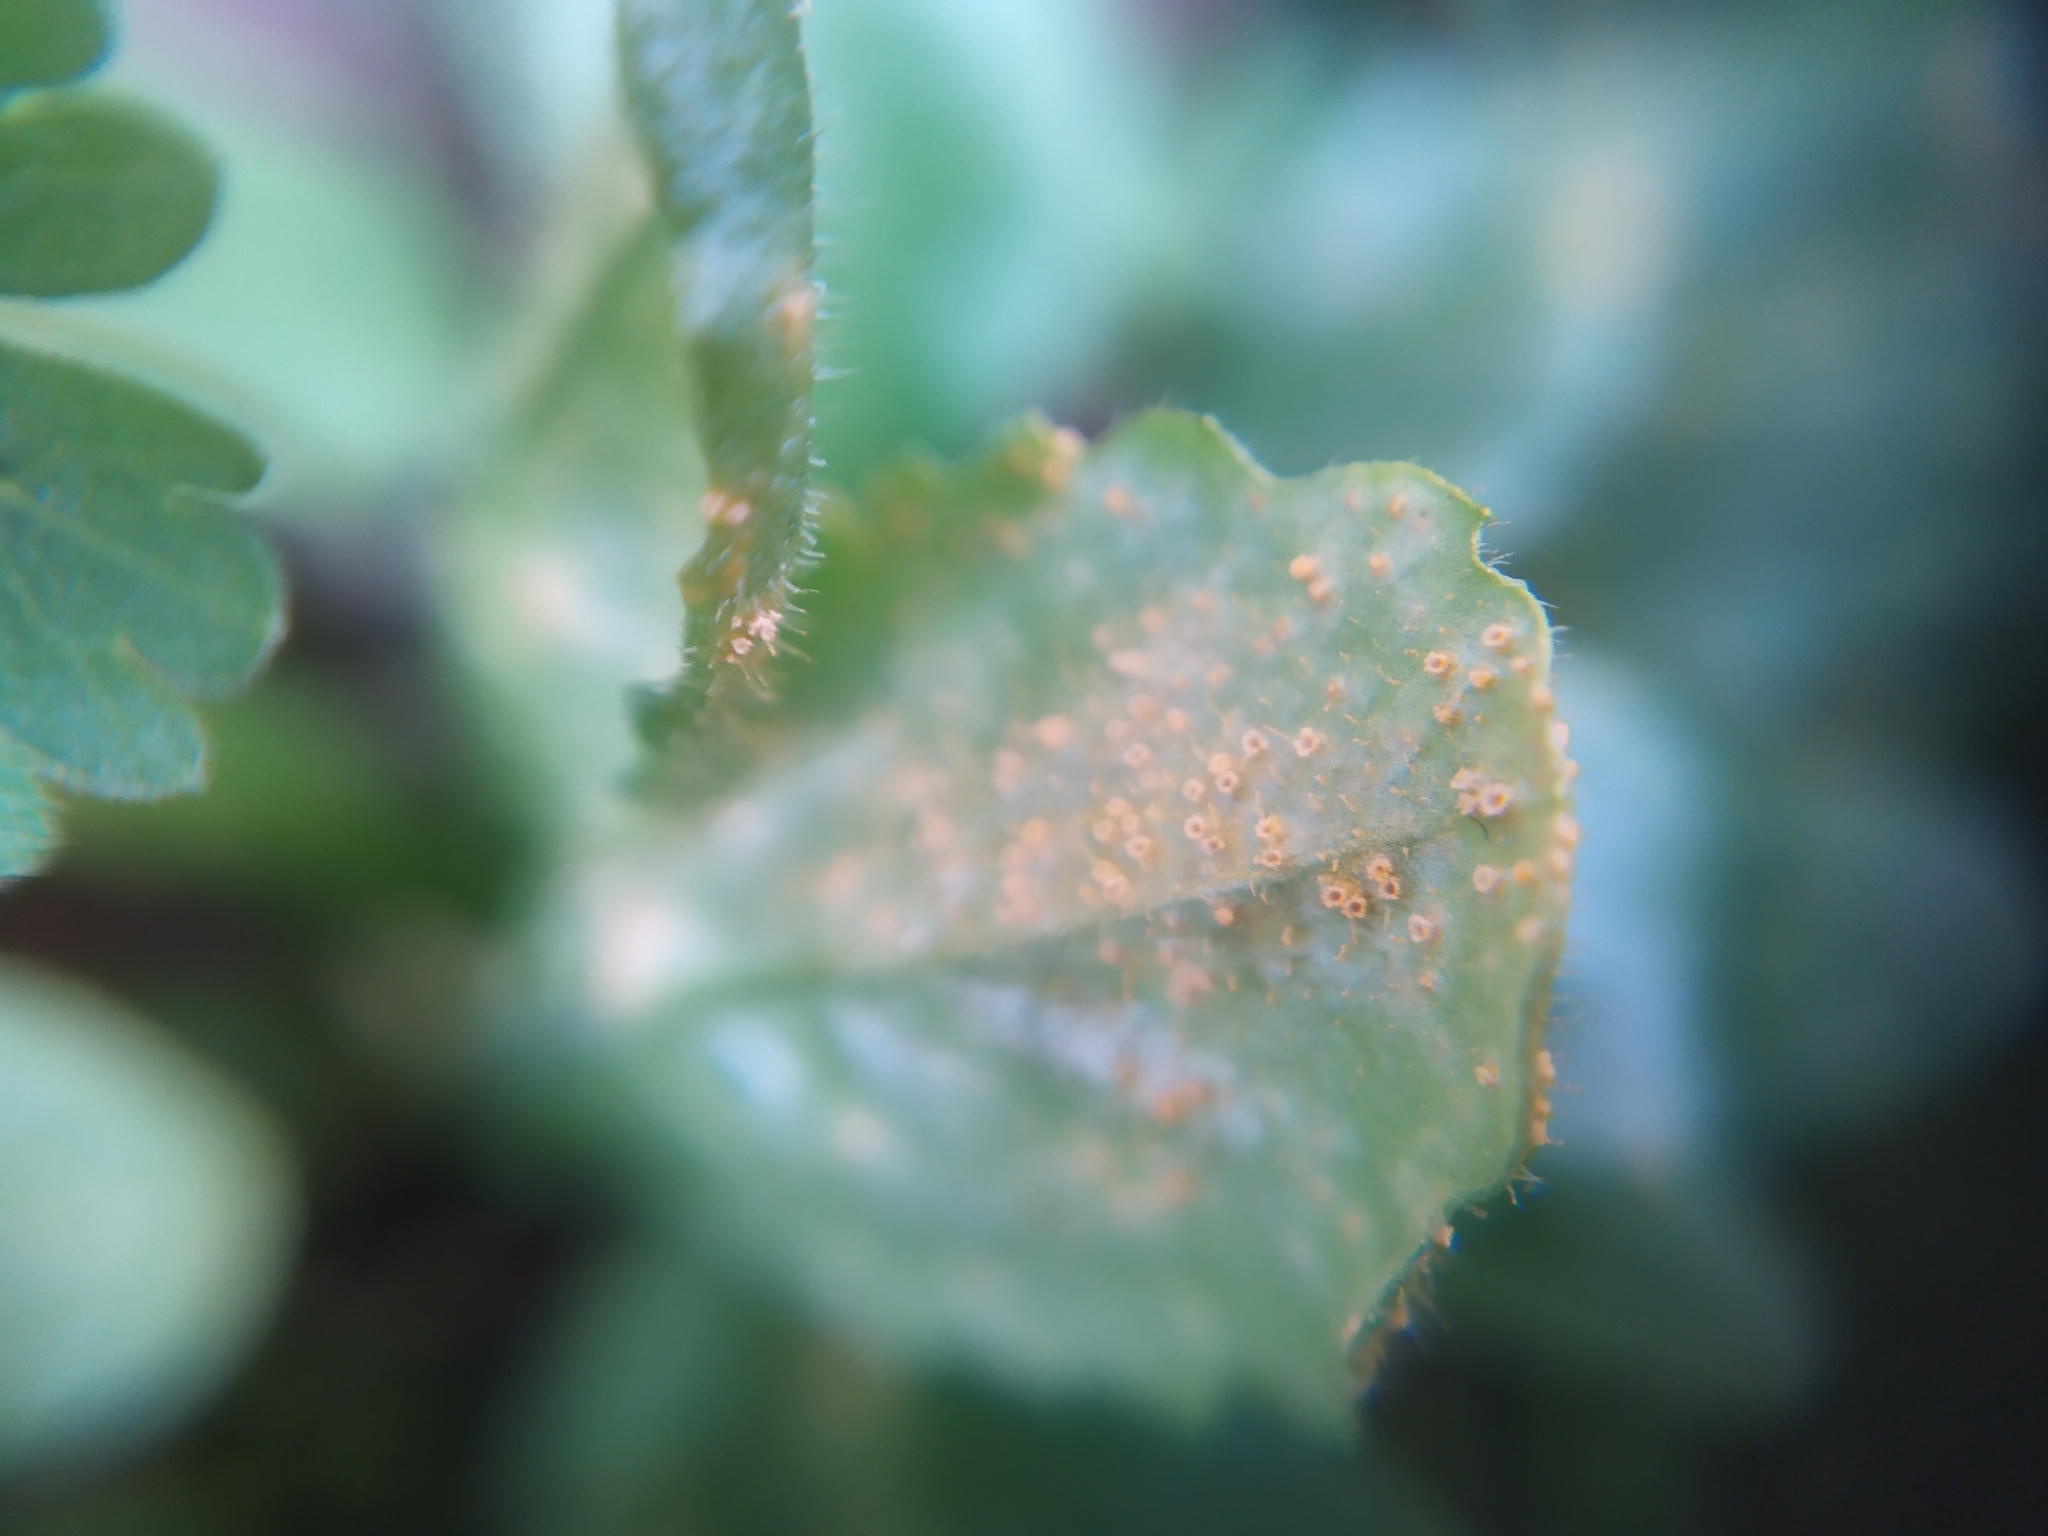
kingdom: Fungi
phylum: Basidiomycota
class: Pucciniomycetes
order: Pucciniales
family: Pucciniaceae
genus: Puccinia
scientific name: Puccinia lagenophorae
